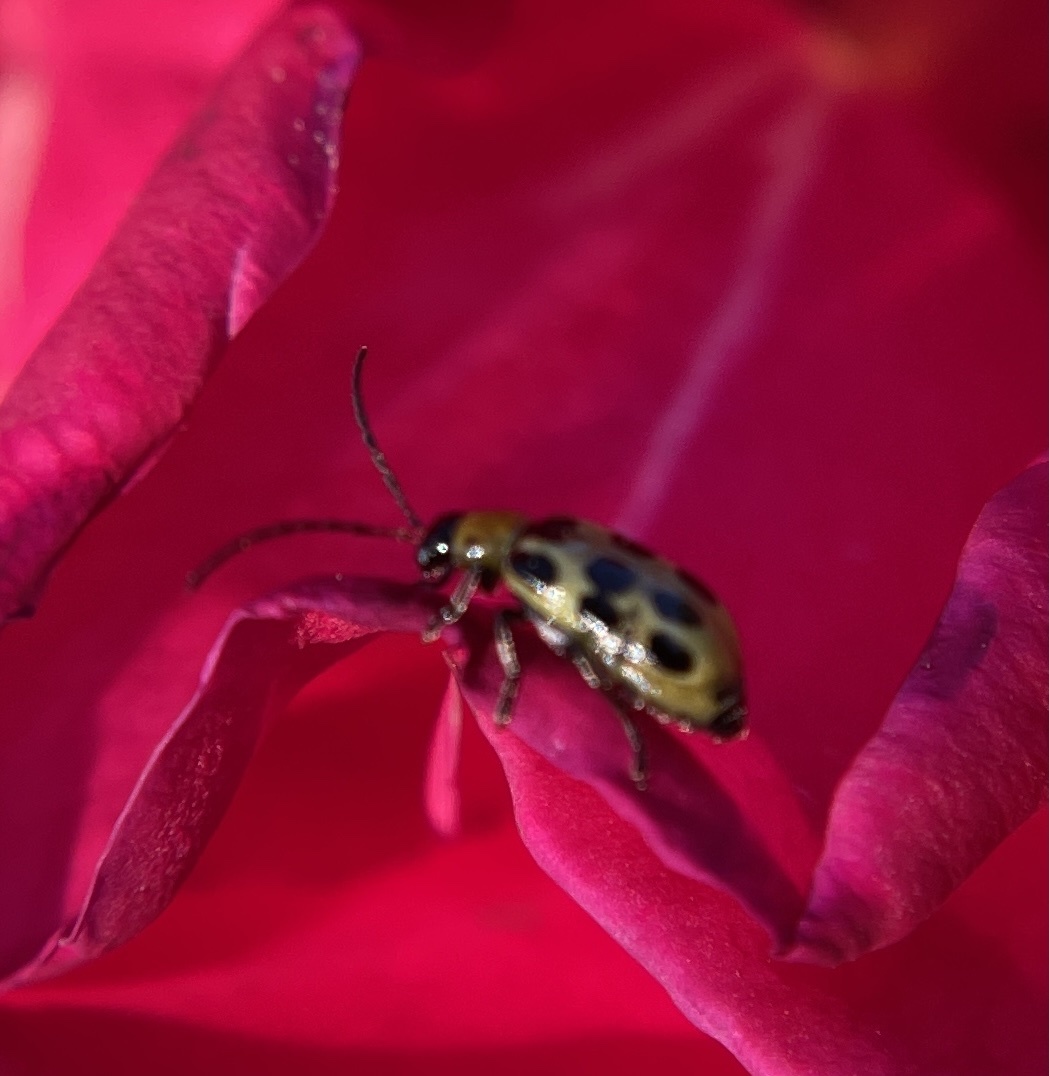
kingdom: Animalia
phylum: Arthropoda
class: Insecta
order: Coleoptera
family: Chrysomelidae
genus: Diabrotica
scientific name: Diabrotica undecimpunctata
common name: Spotted cucumber beetle
